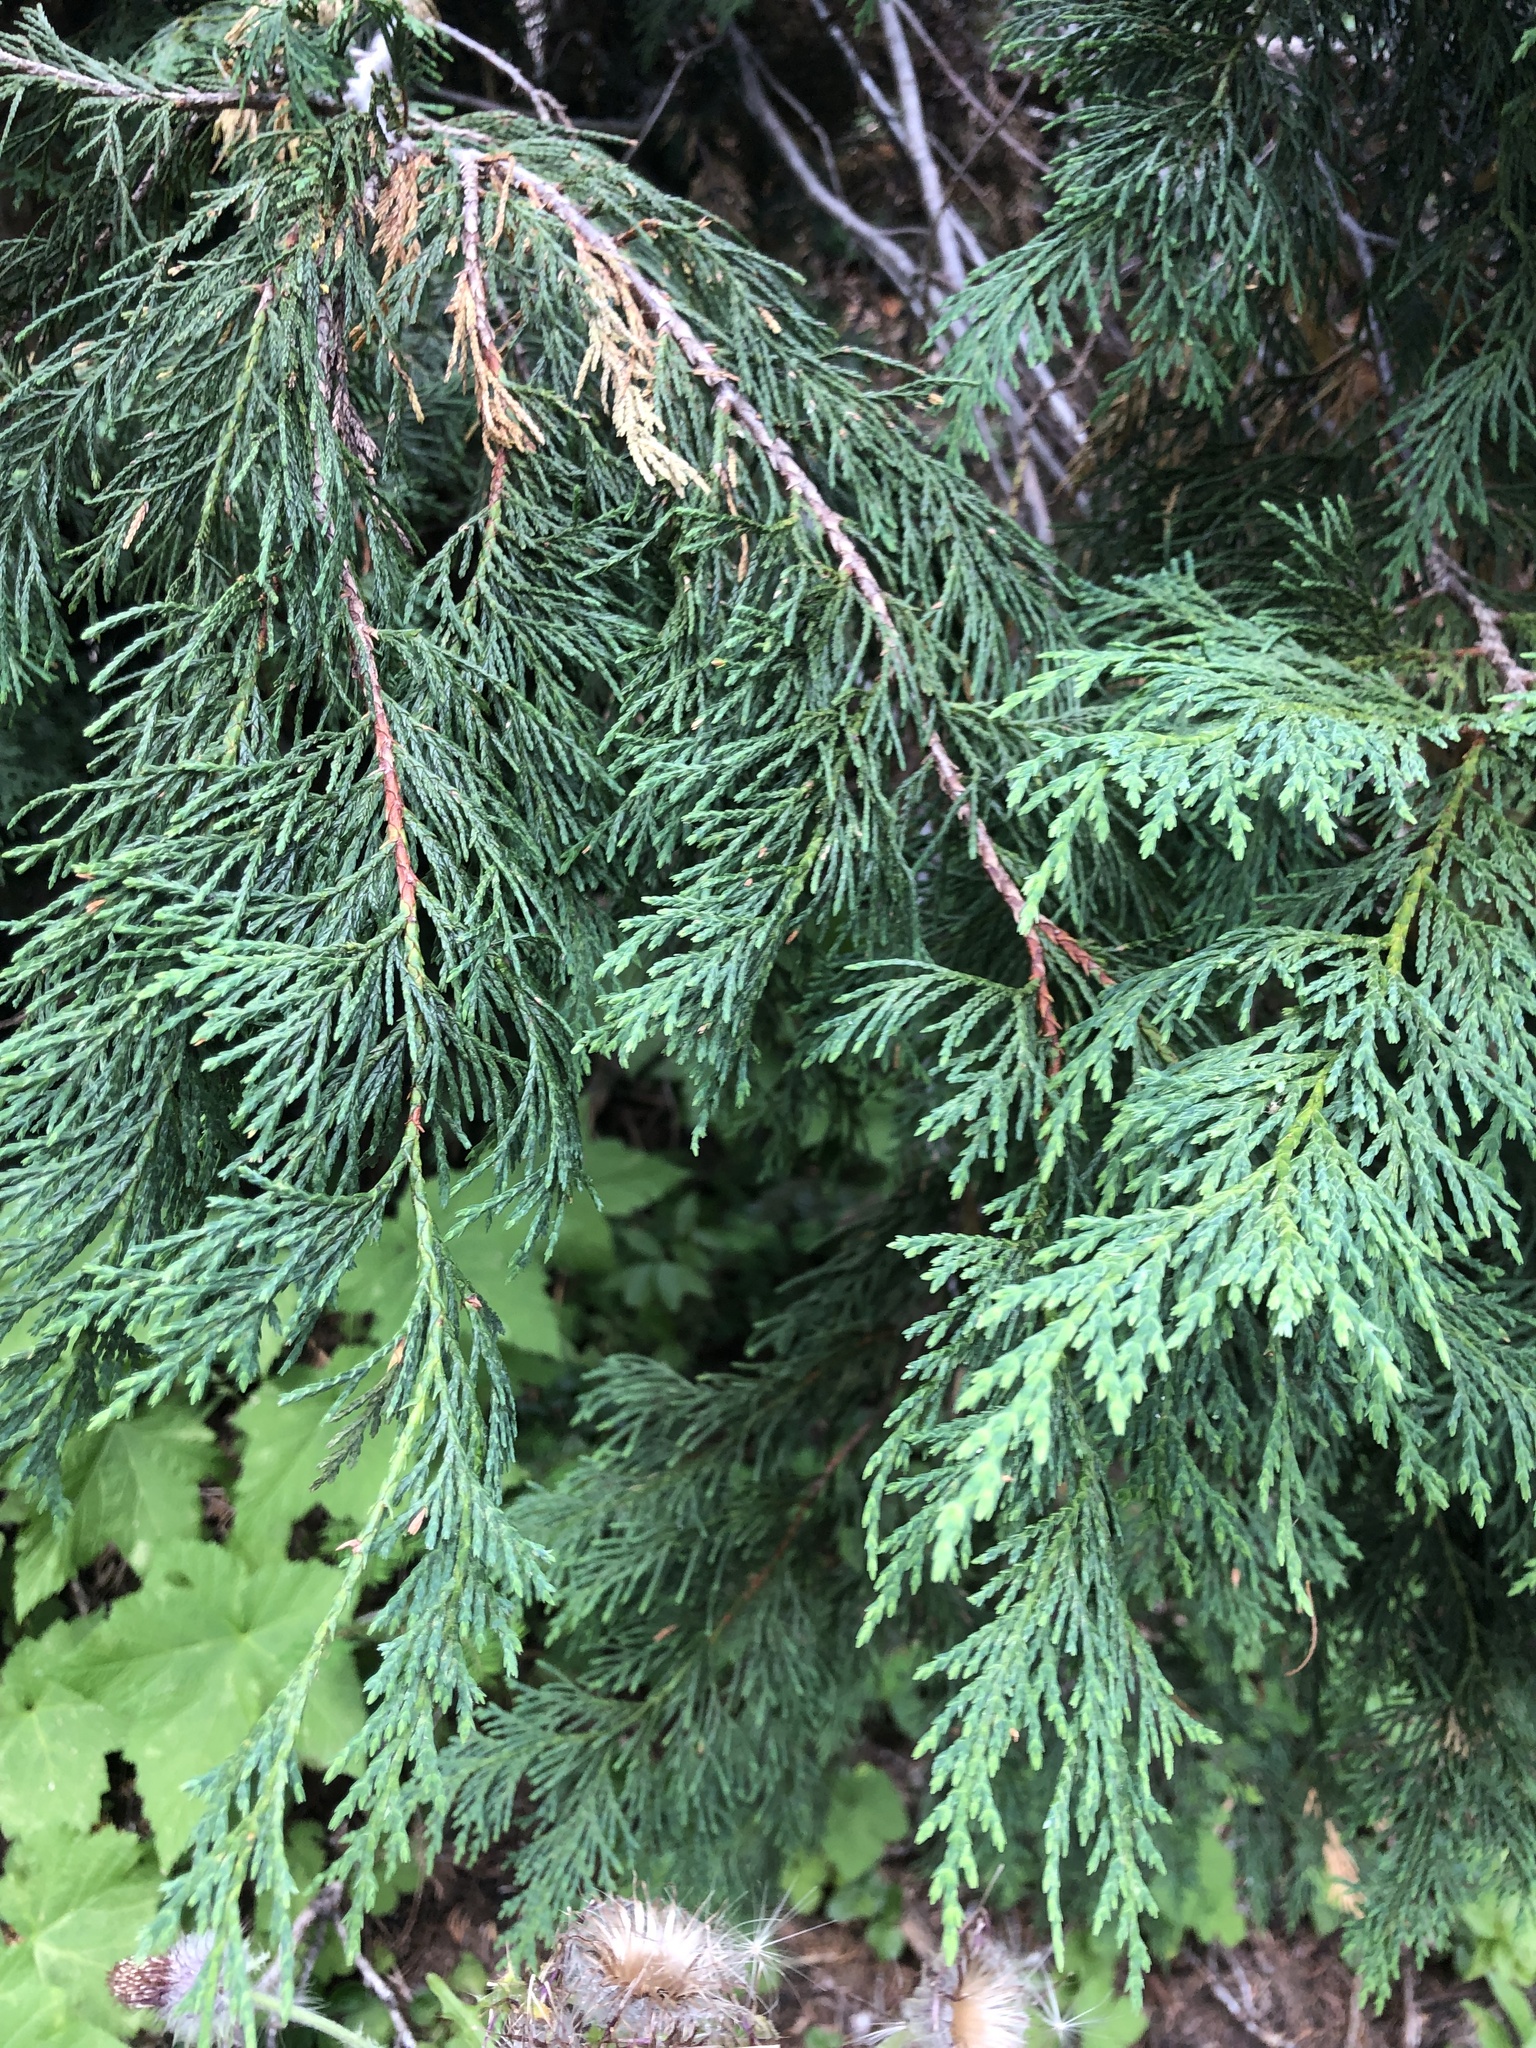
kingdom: Plantae
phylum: Tracheophyta
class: Pinopsida
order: Pinales
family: Cupressaceae
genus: Xanthocyparis
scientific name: Xanthocyparis nootkatensis
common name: Nootka cypress
